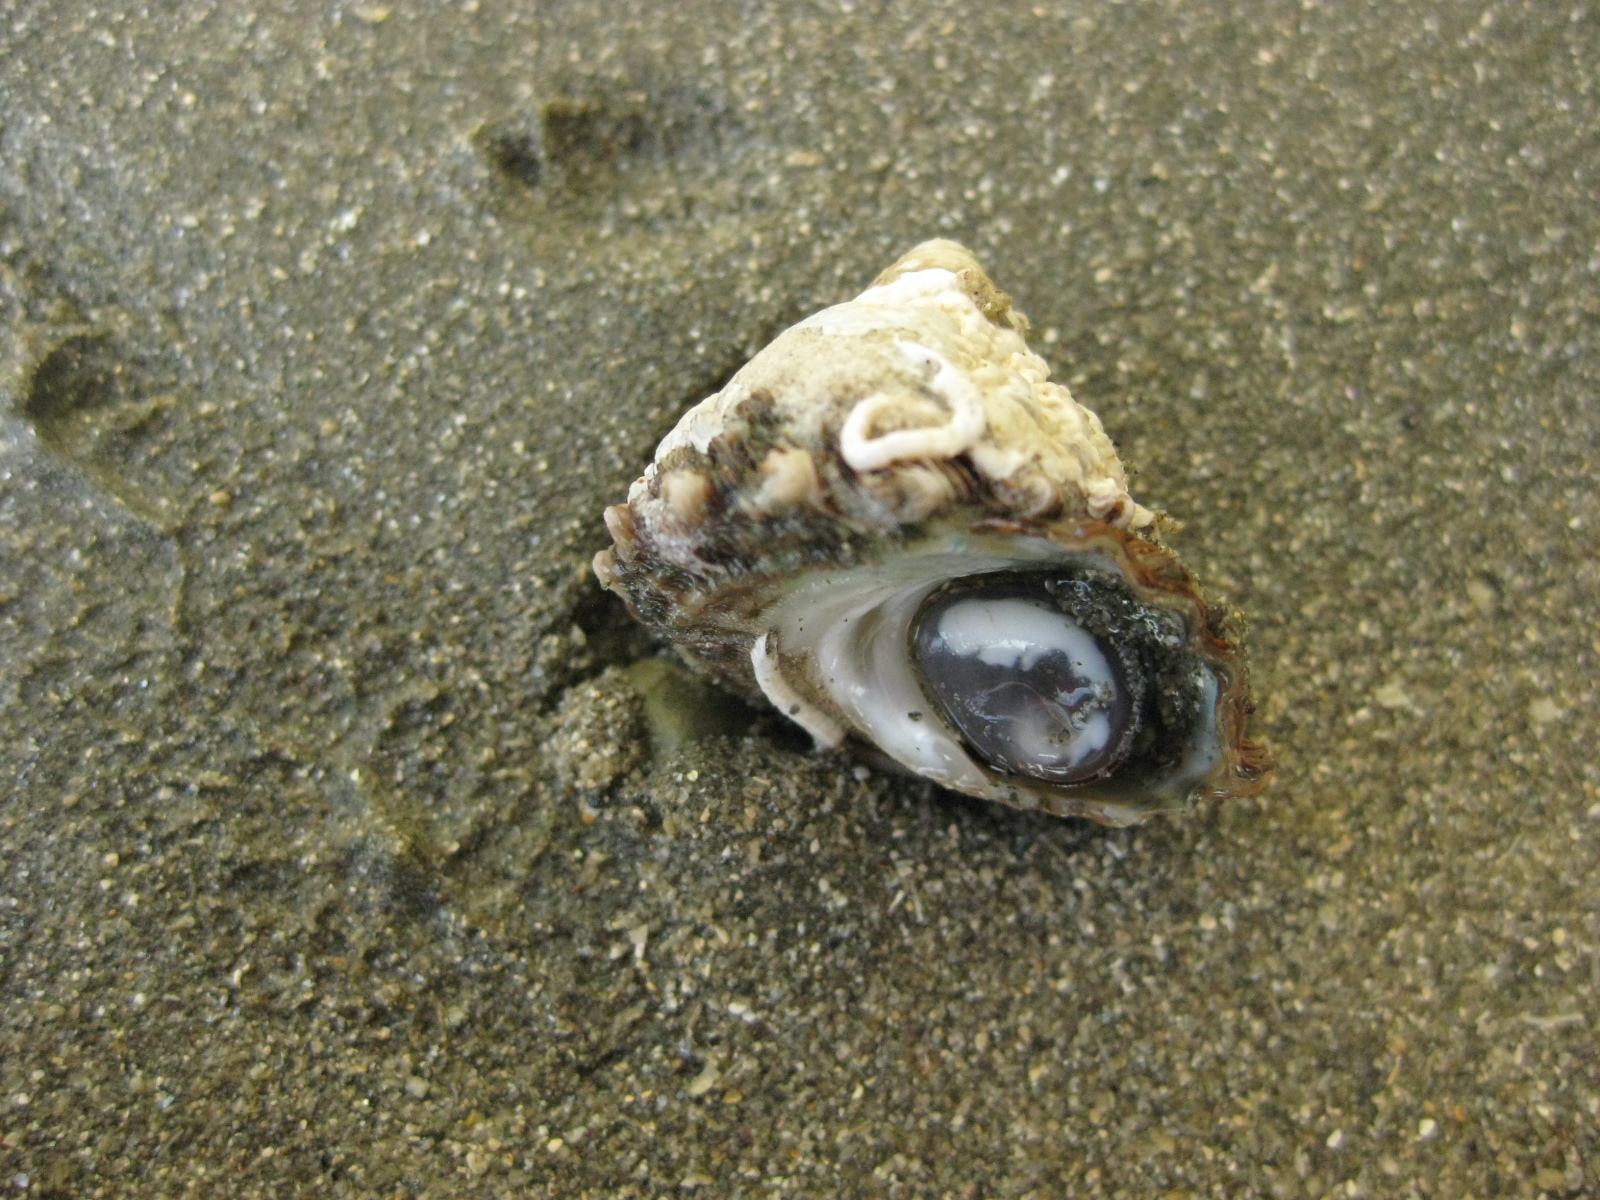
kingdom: Animalia
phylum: Mollusca
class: Gastropoda
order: Trochida
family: Turbinidae
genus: Cookia
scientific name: Cookia sulcata
